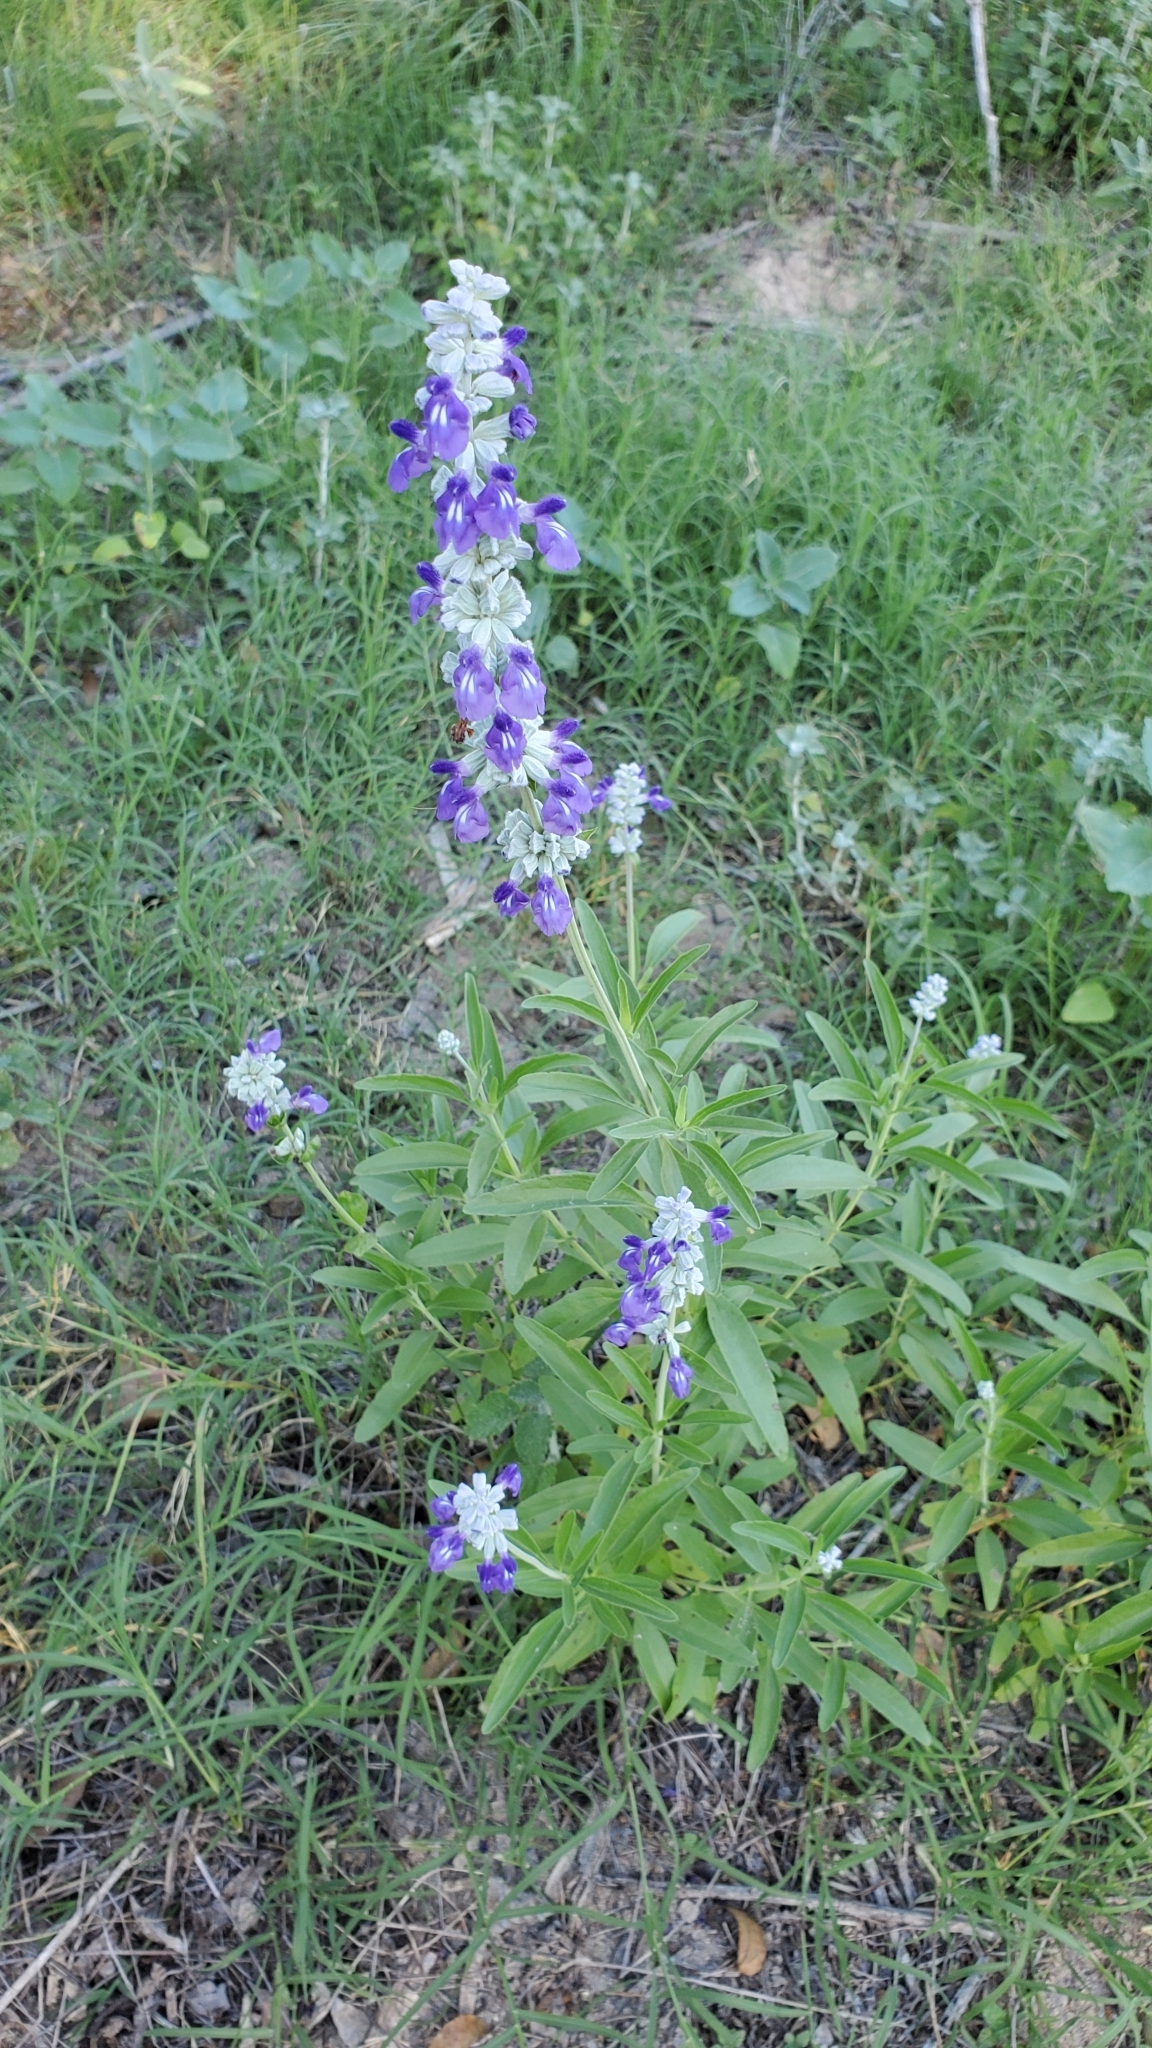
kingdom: Plantae
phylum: Tracheophyta
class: Magnoliopsida
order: Lamiales
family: Lamiaceae
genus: Salvia
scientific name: Salvia farinacea
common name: Mealy sage
